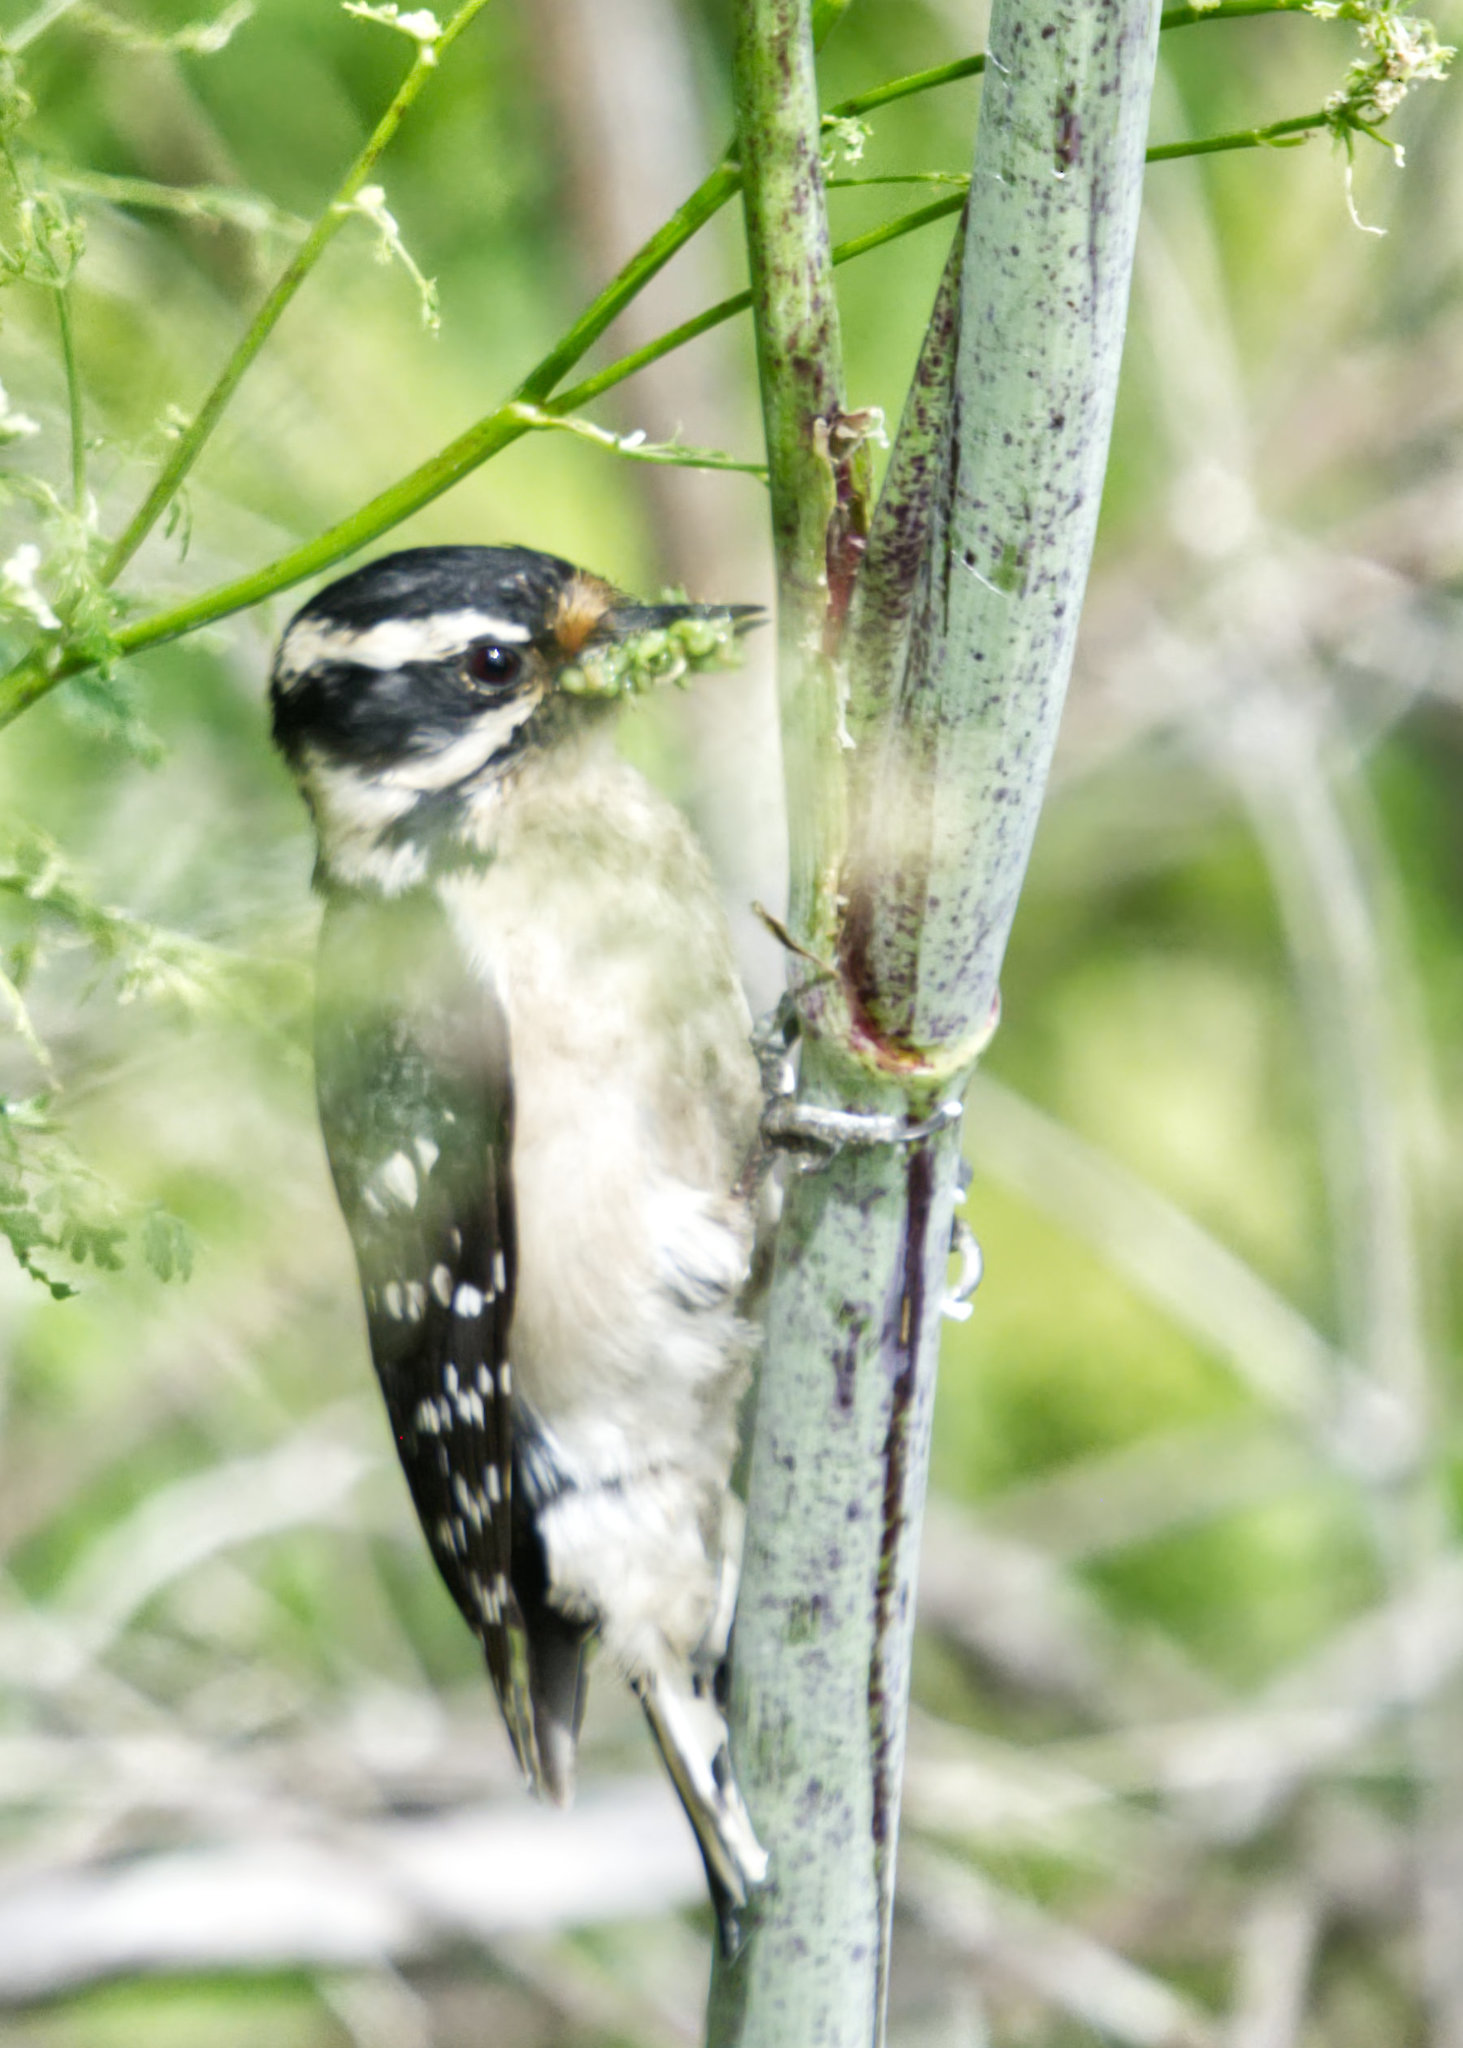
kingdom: Animalia
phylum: Chordata
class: Aves
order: Piciformes
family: Picidae
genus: Dryobates
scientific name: Dryobates pubescens
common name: Downy woodpecker
